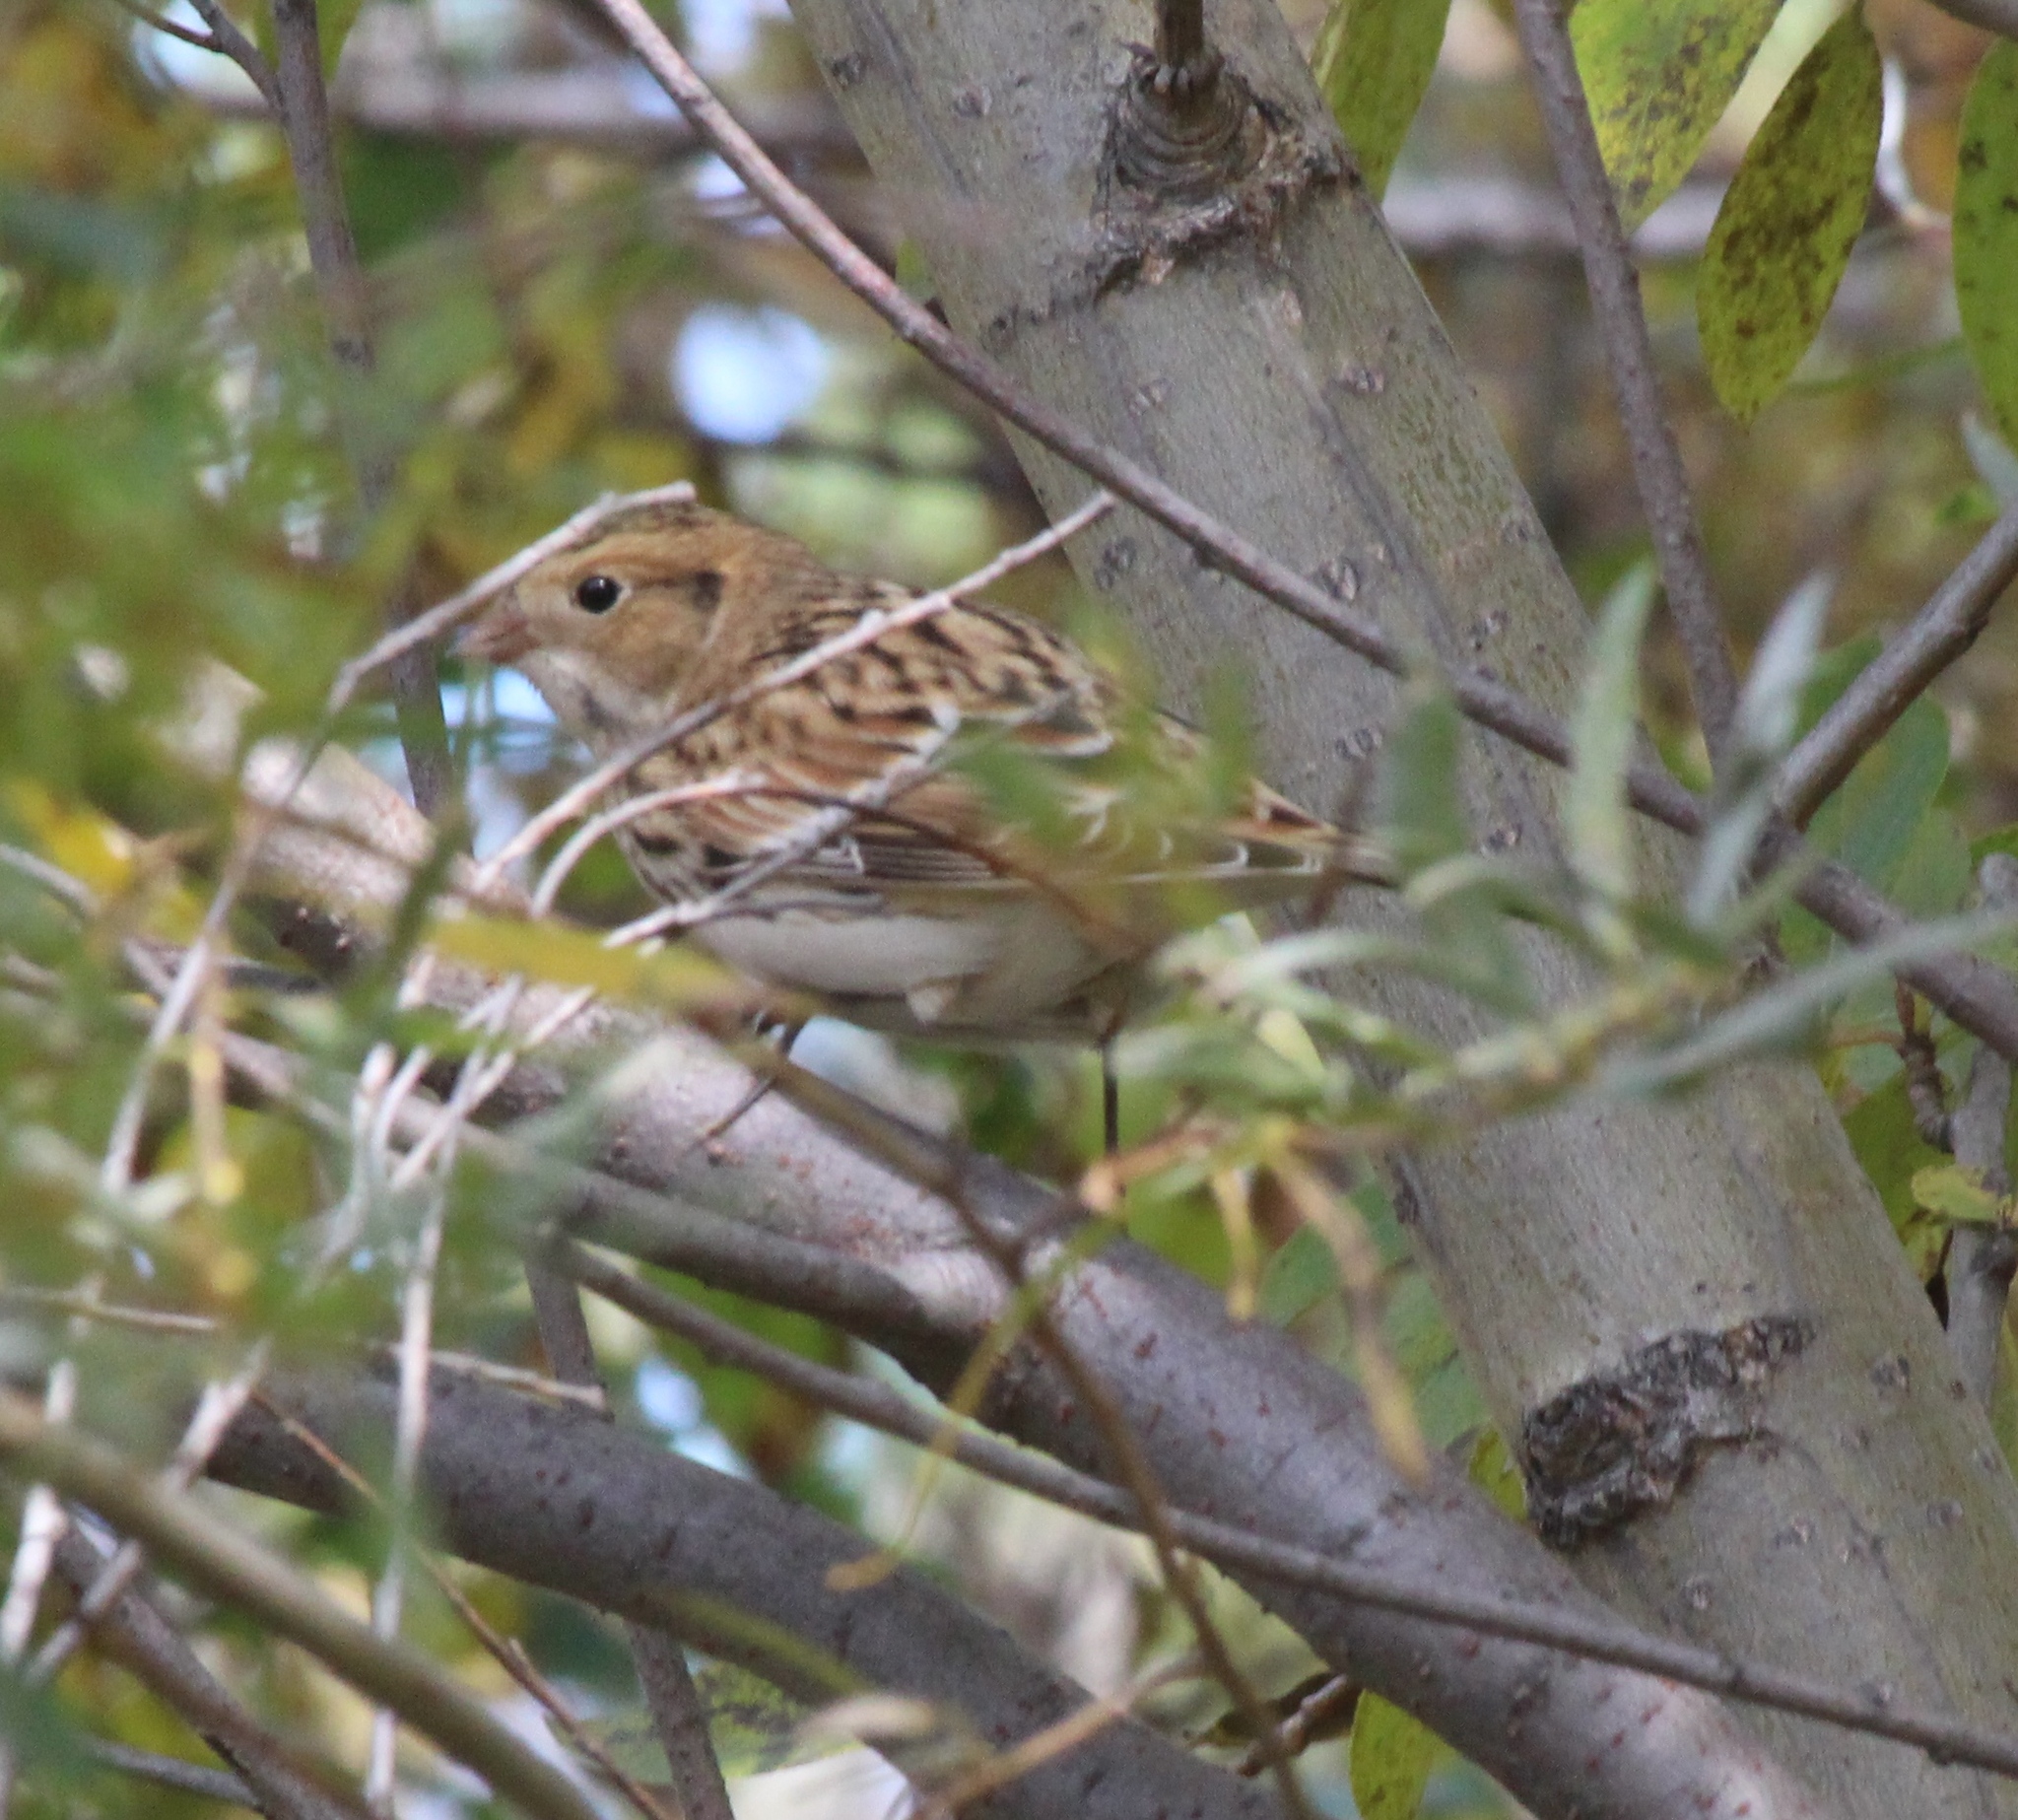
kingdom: Animalia
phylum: Chordata
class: Aves
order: Passeriformes
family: Calcariidae
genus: Calcarius
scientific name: Calcarius lapponicus
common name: Lapland longspur
